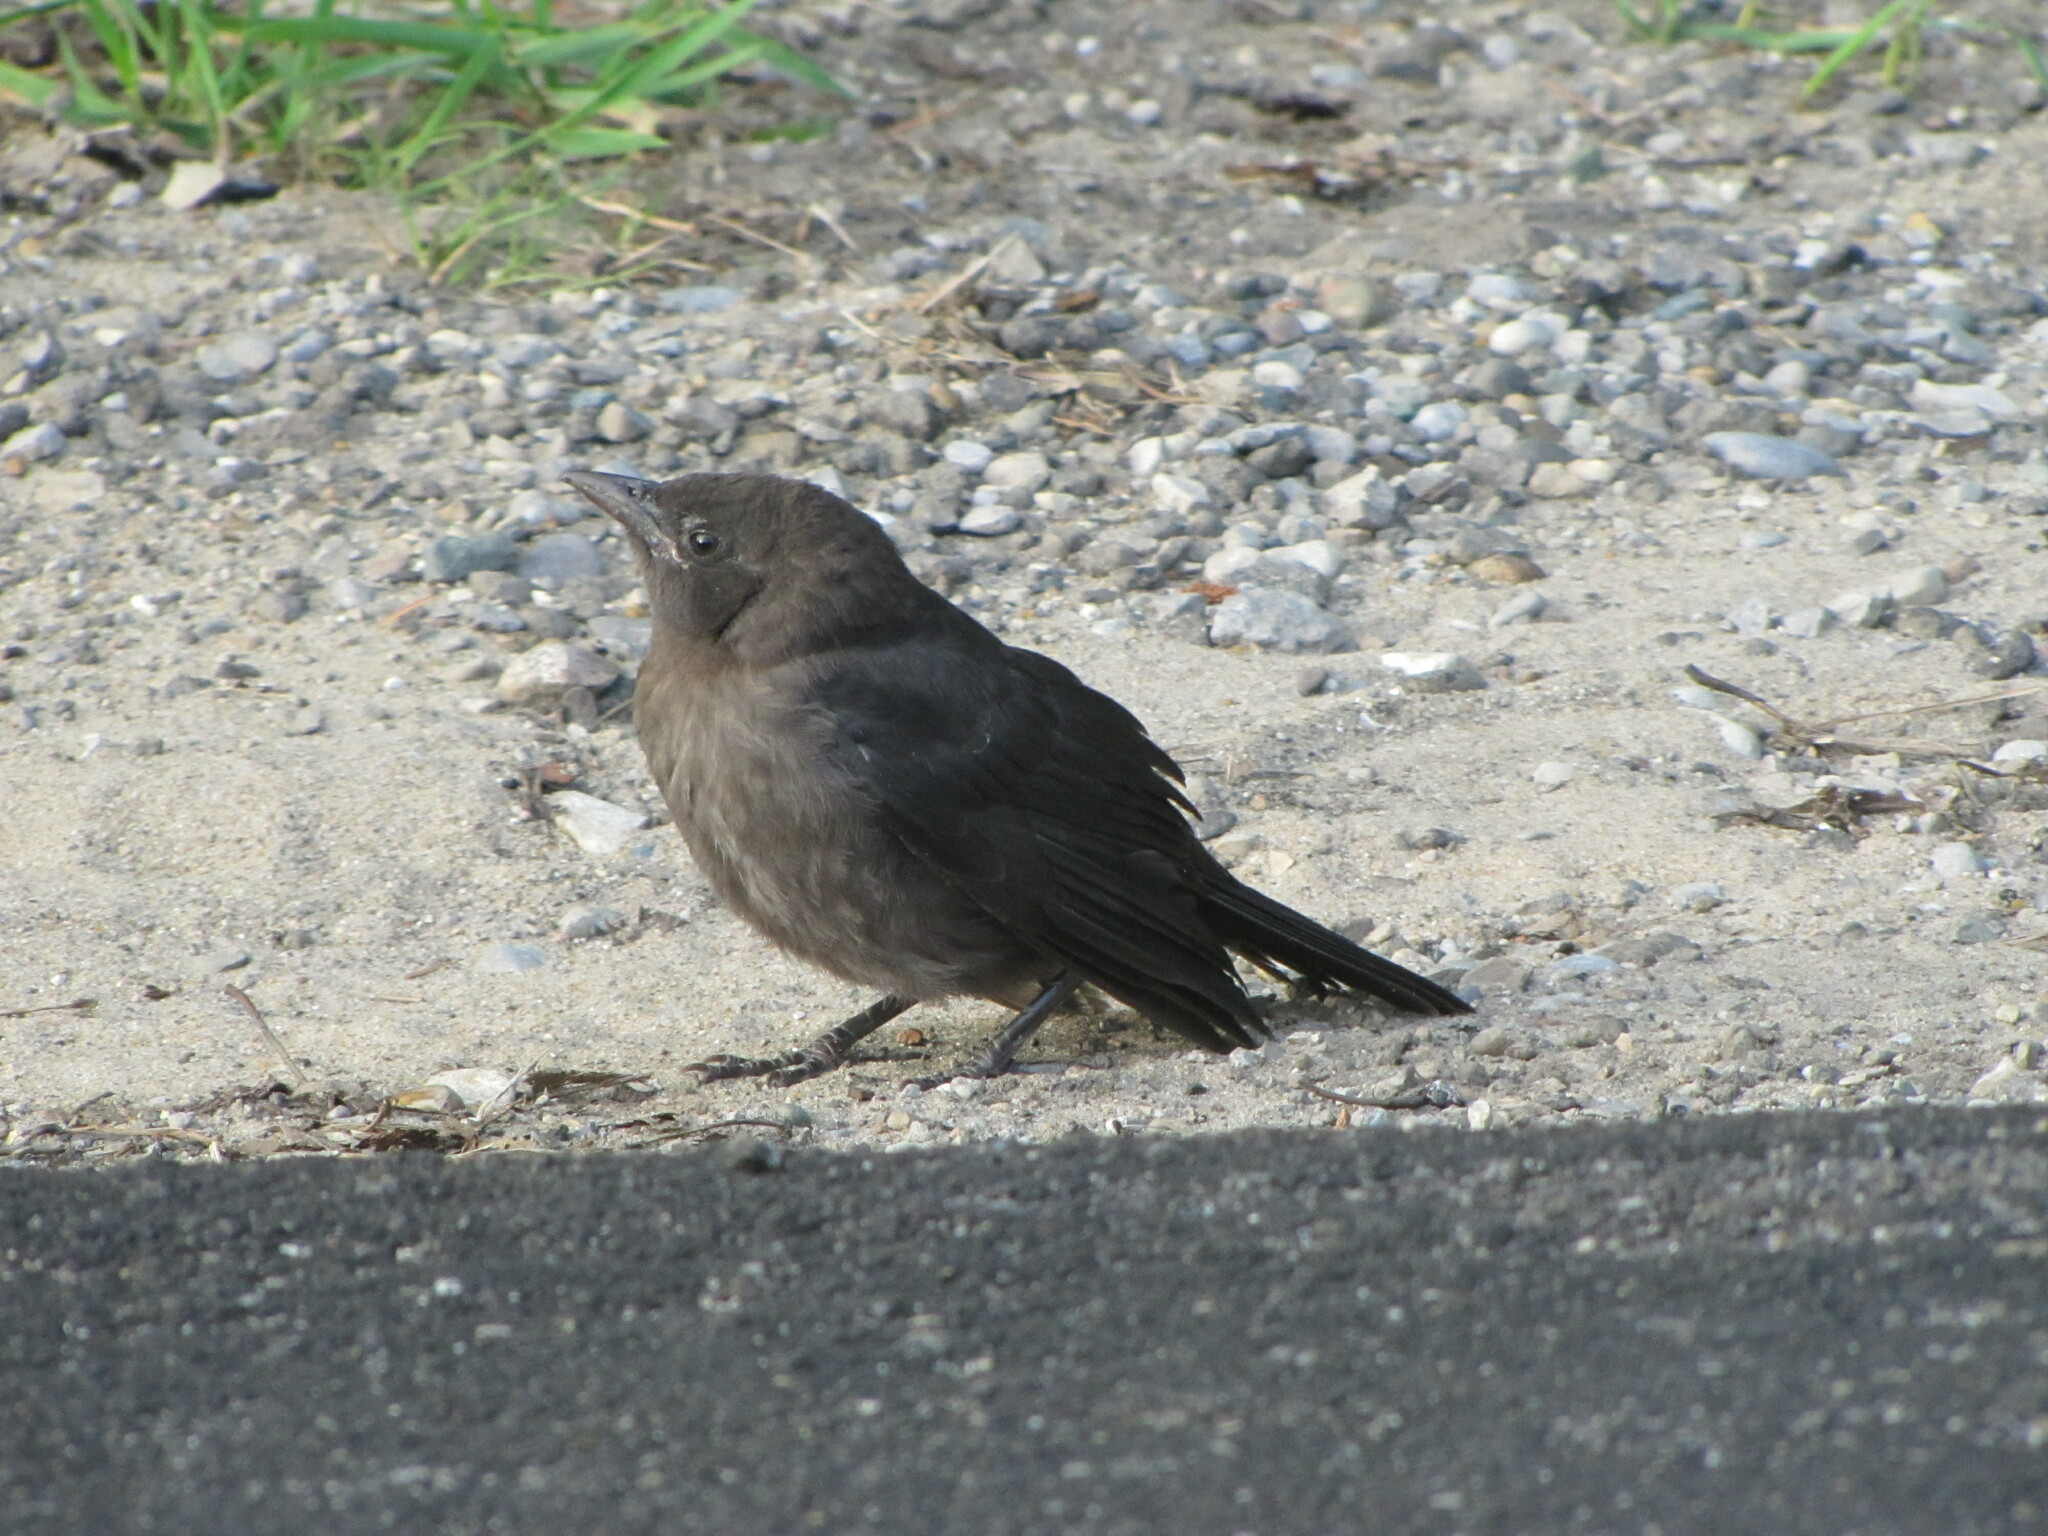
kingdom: Animalia
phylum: Chordata
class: Aves
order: Passeriformes
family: Icteridae
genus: Quiscalus
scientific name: Quiscalus quiscula
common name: Common grackle
